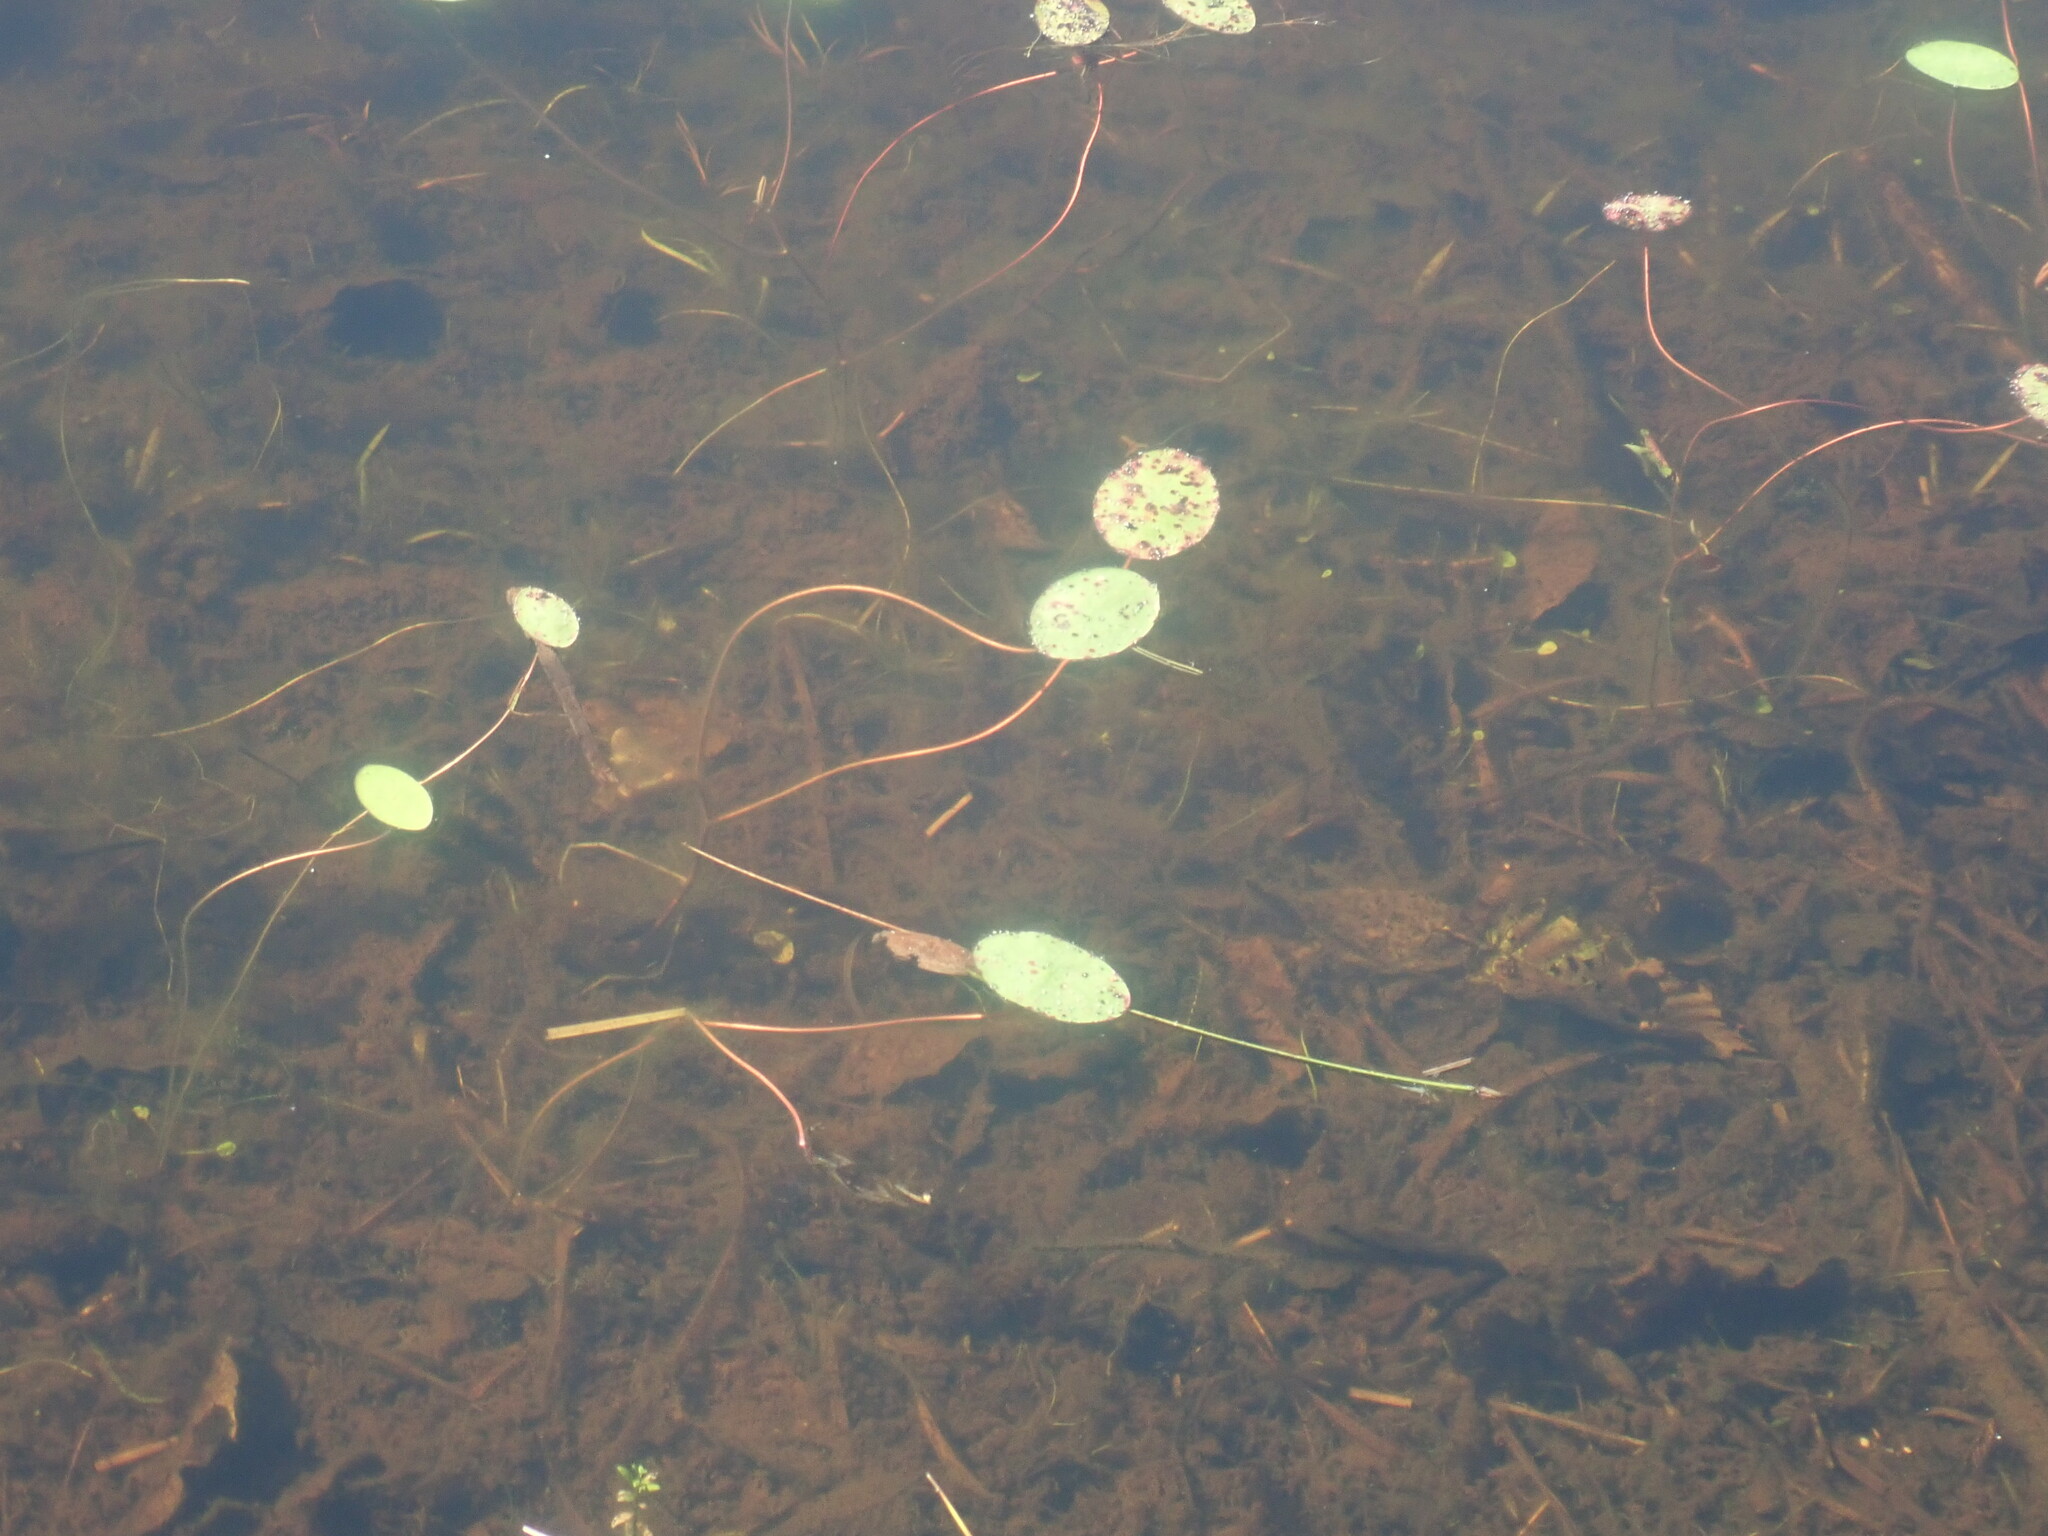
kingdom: Plantae
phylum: Tracheophyta
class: Magnoliopsida
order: Nymphaeales
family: Cabombaceae
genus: Brasenia
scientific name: Brasenia schreberi
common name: Water-shield
